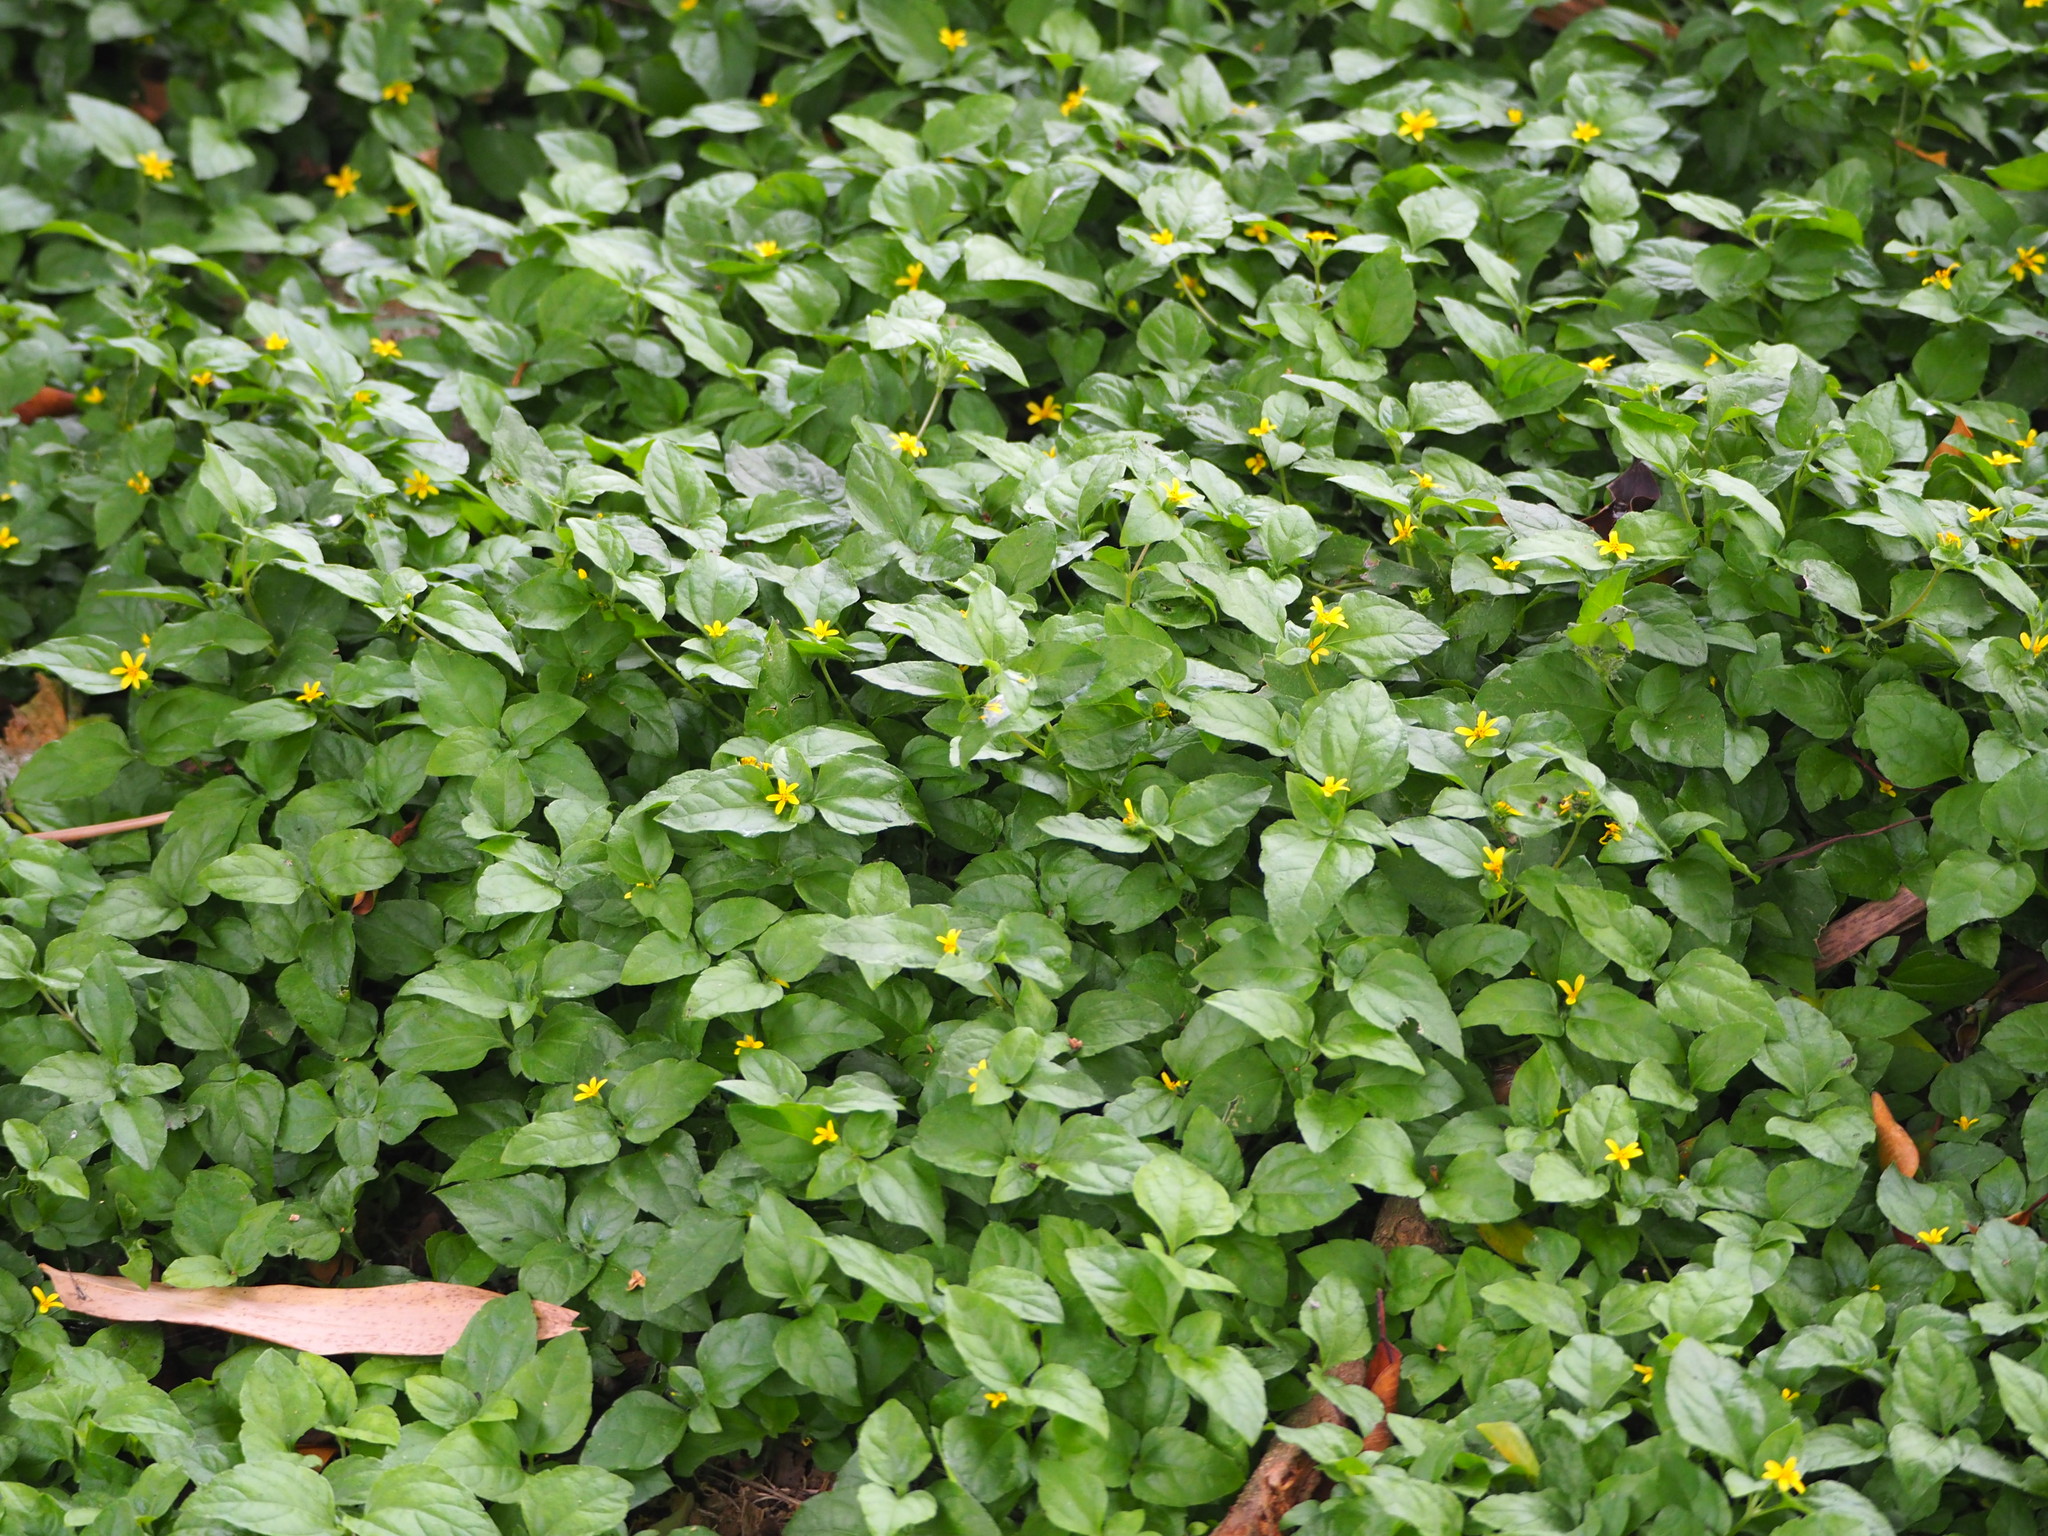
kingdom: Plantae
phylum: Tracheophyta
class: Magnoliopsida
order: Asterales
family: Asteraceae
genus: Calyptocarpus
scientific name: Calyptocarpus vialis
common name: Straggler daisy
